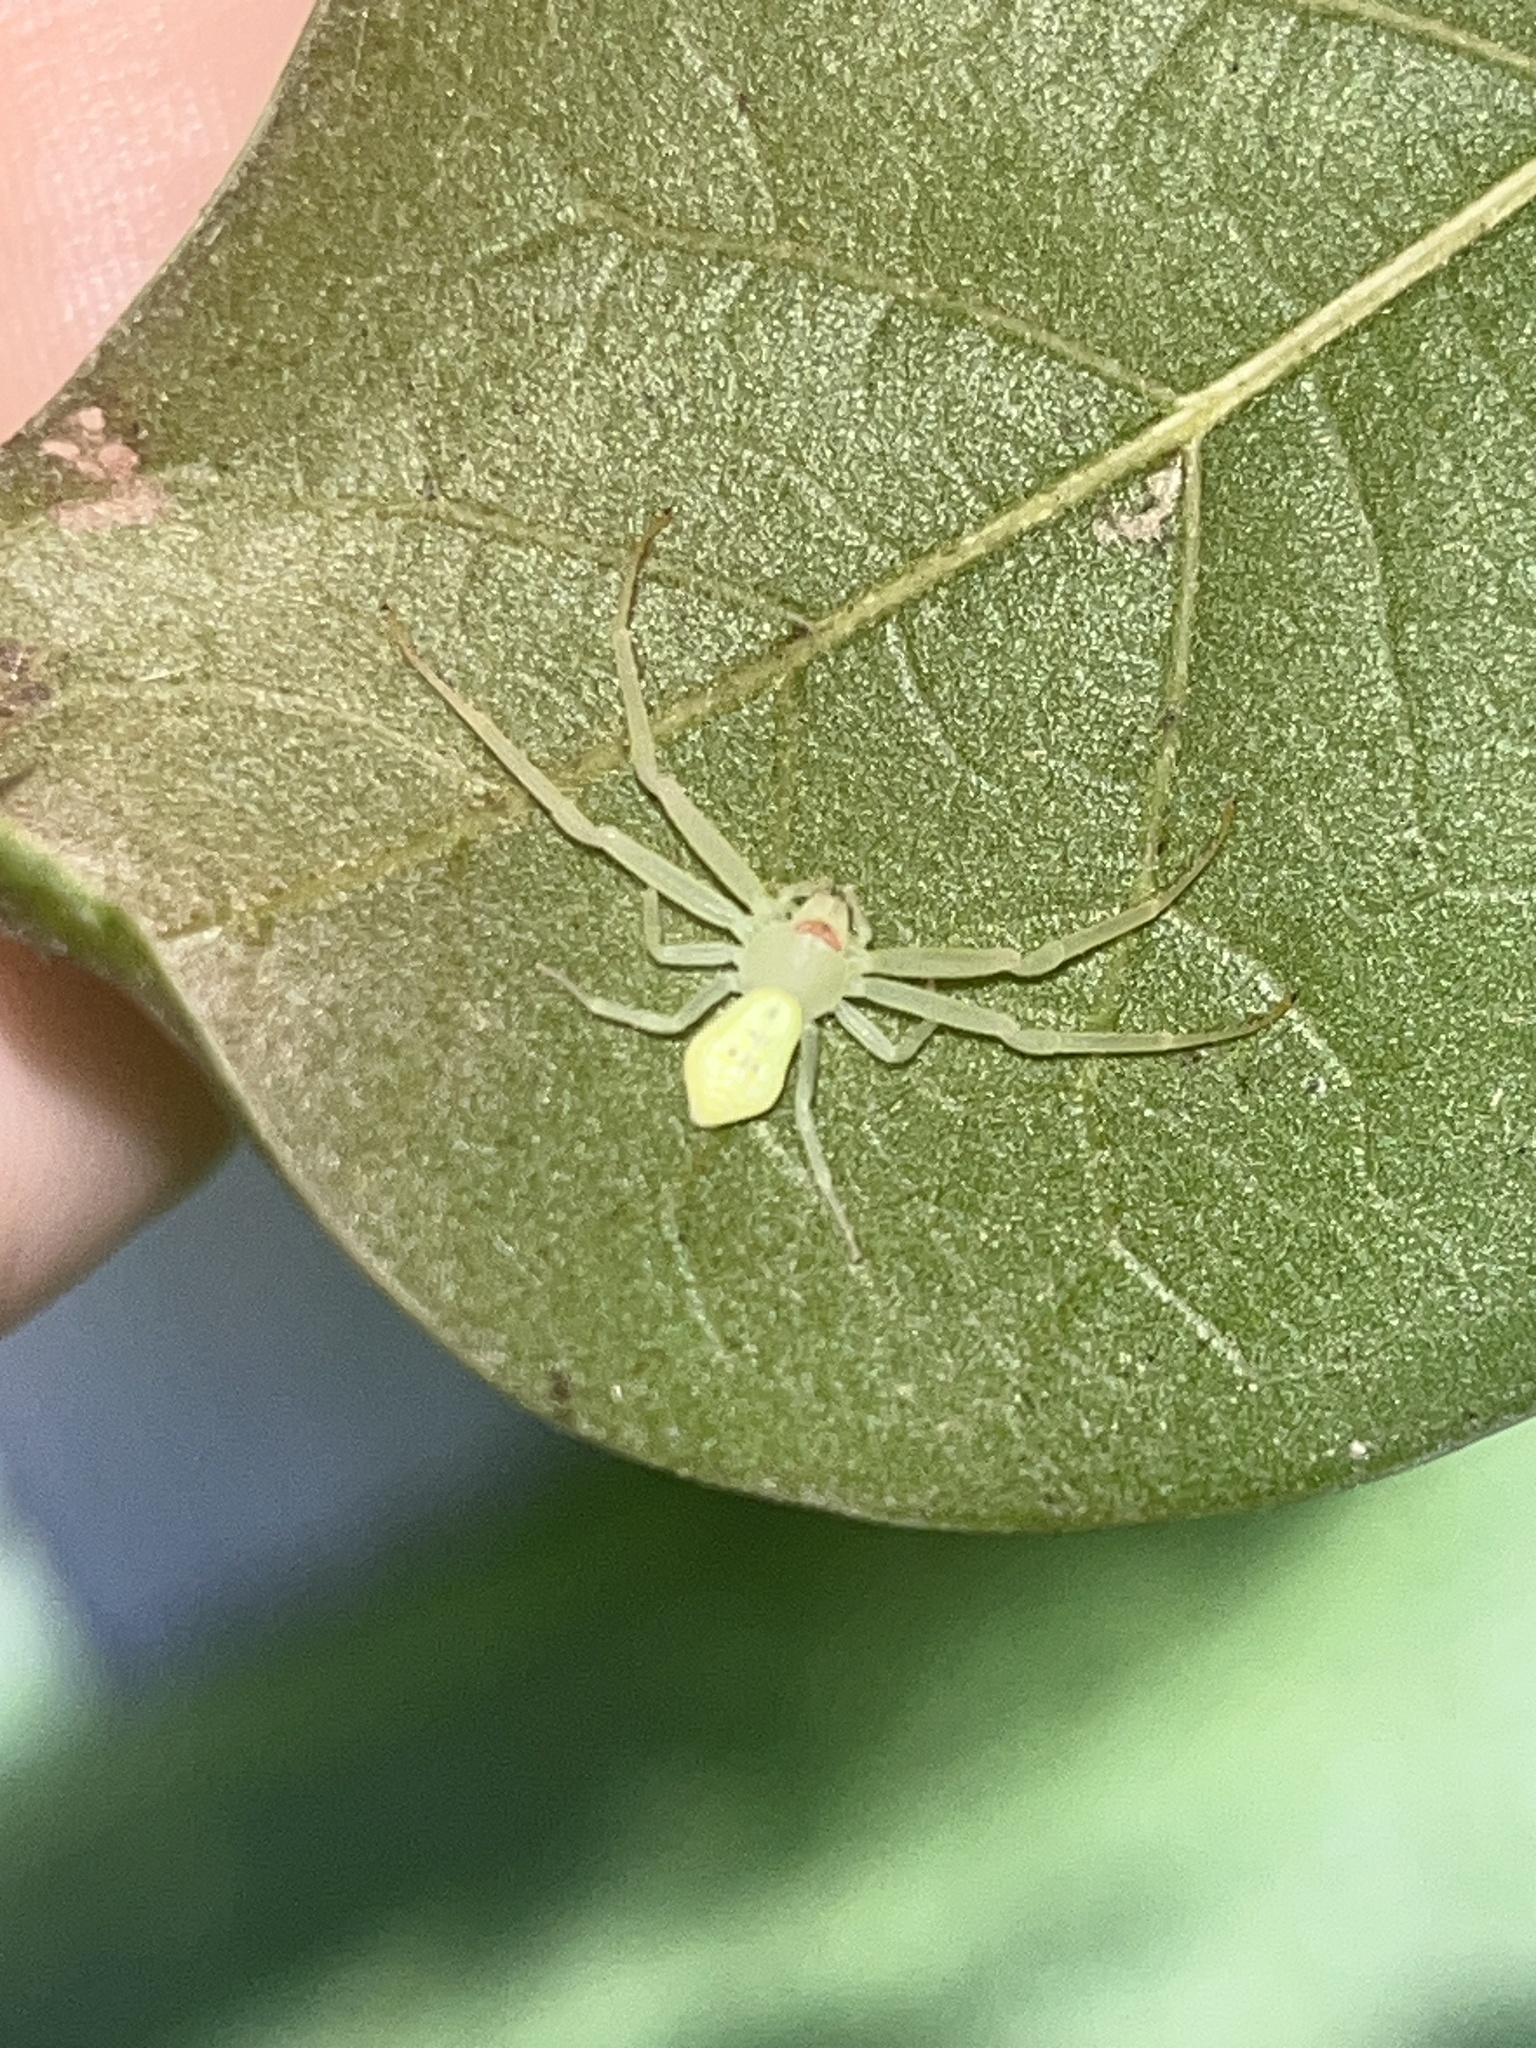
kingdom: Animalia
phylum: Arthropoda
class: Arachnida
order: Araneae
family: Thomisidae
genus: Misumessus
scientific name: Misumessus oblongus
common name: American green crab spider
